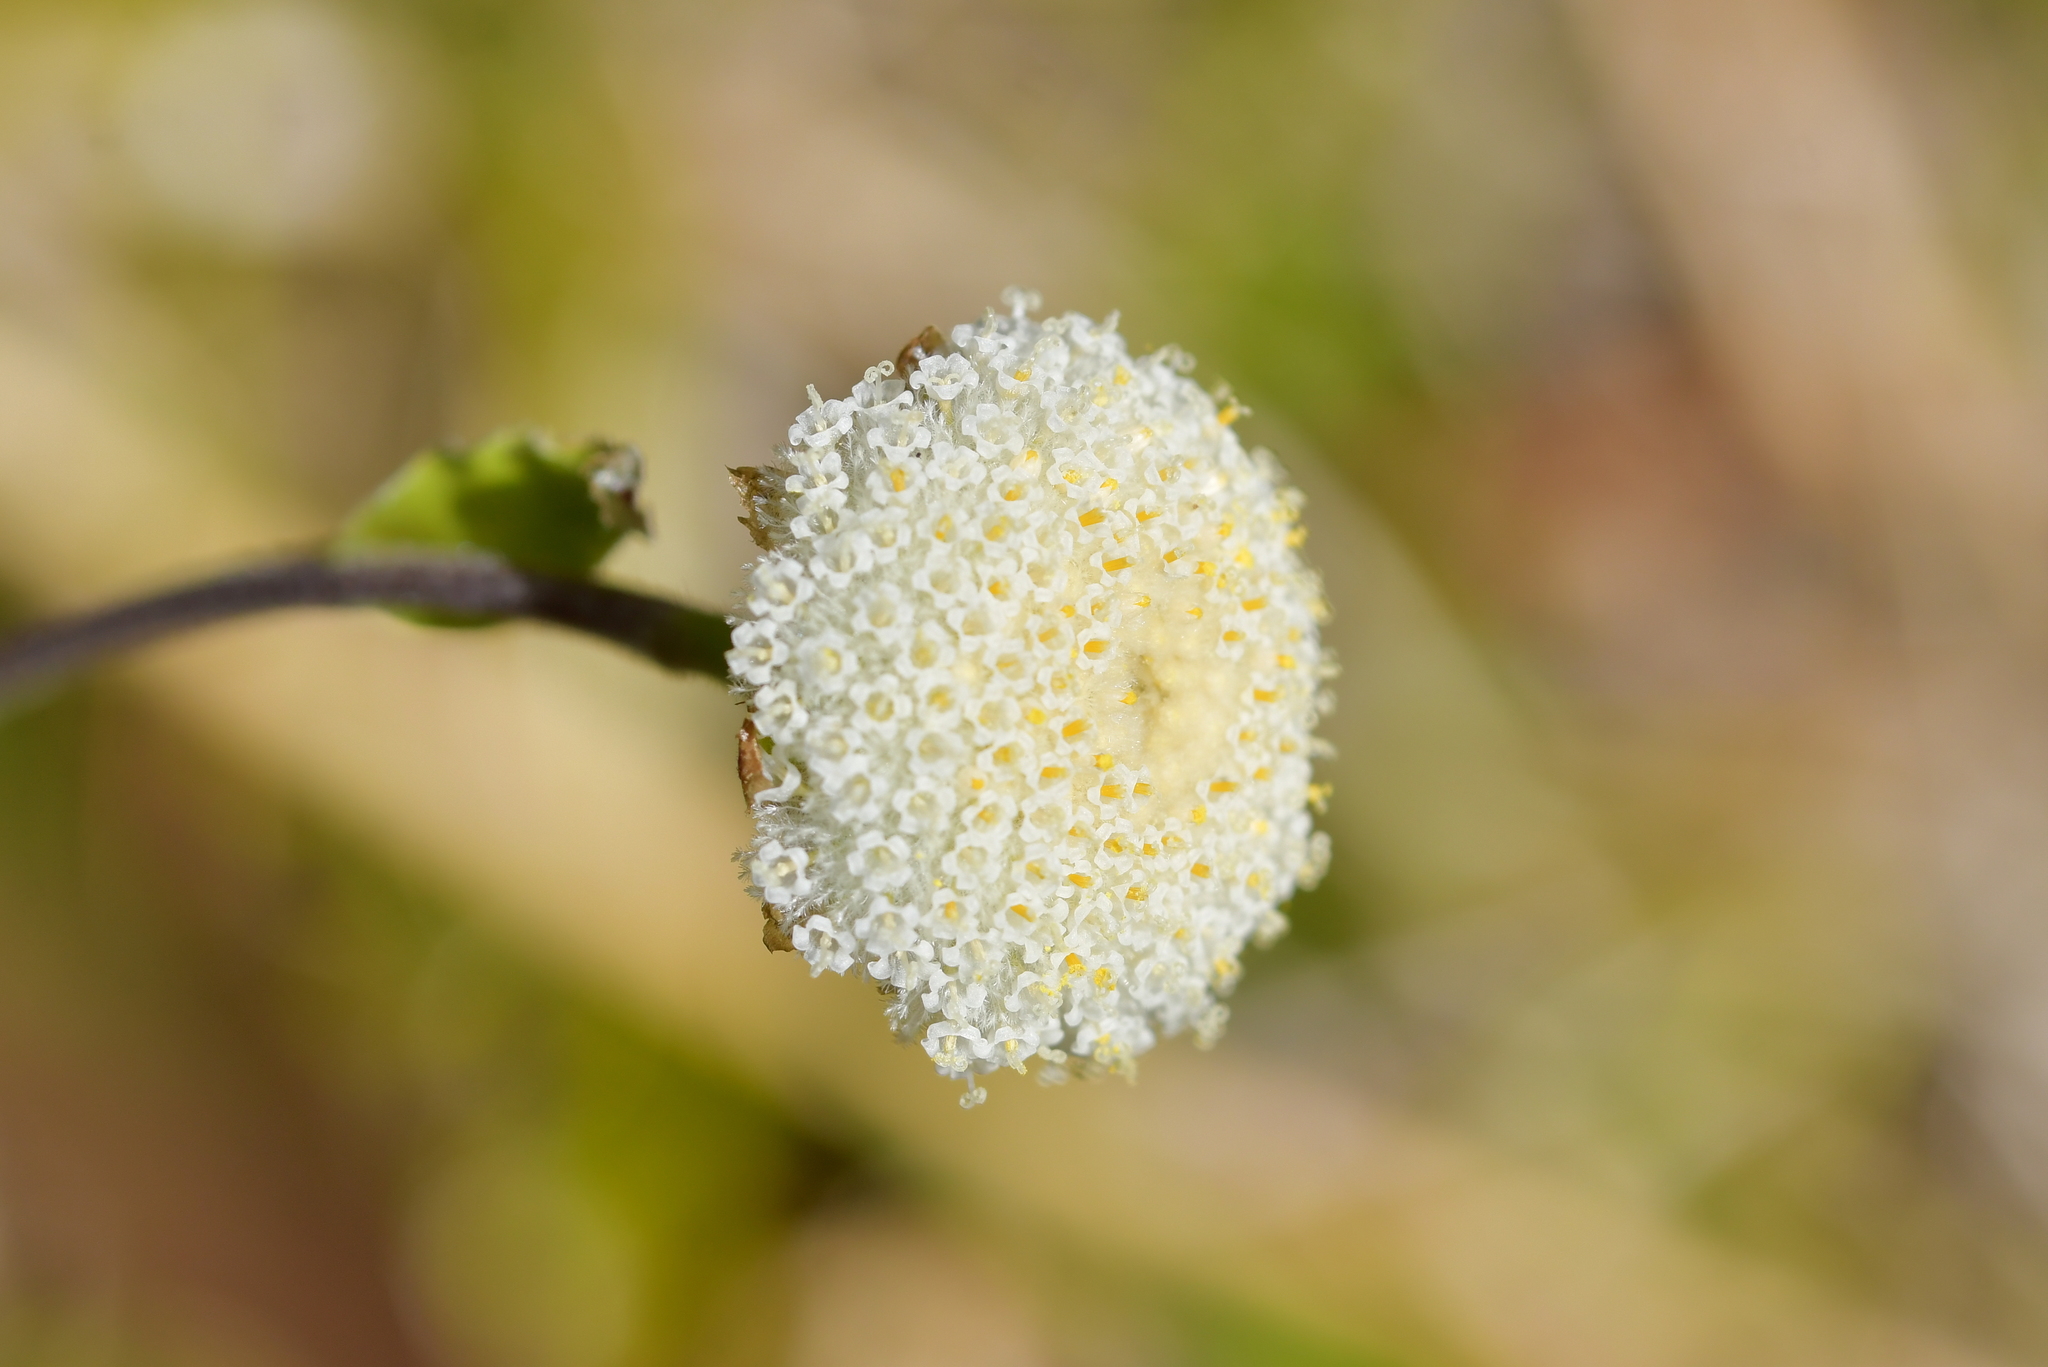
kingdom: Plantae
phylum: Tracheophyta
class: Magnoliopsida
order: Asterales
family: Asteraceae
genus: Craspedia
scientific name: Craspedia uniflora
